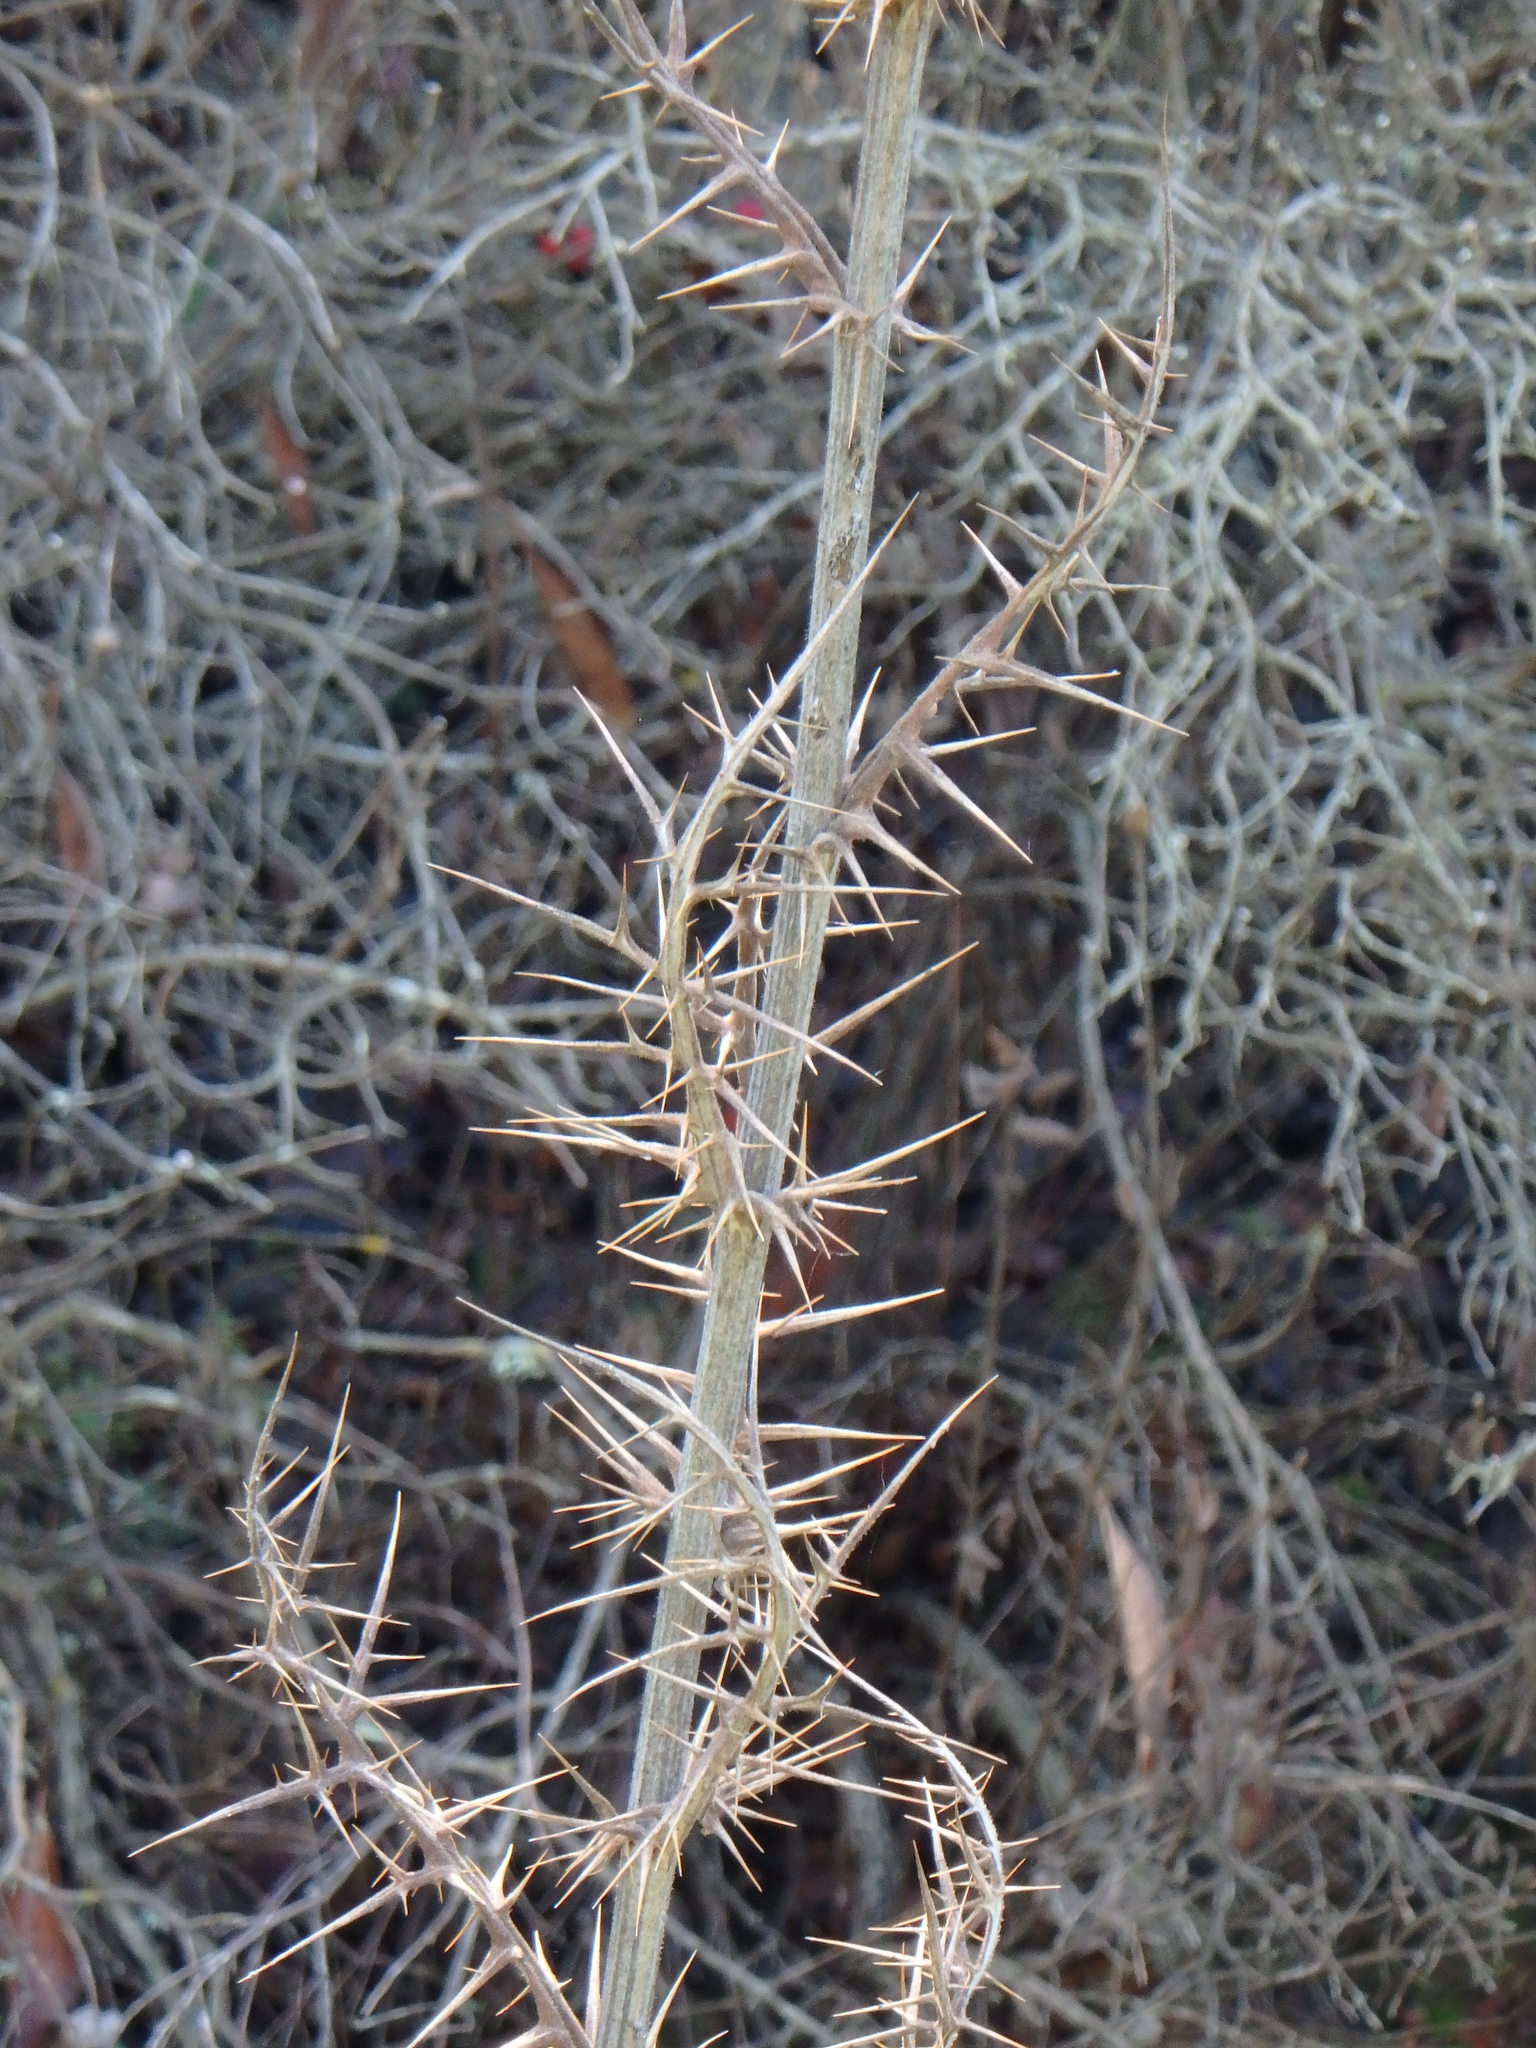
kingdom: Plantae
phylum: Tracheophyta
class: Magnoliopsida
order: Asterales
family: Asteraceae
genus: Echinops
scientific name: Echinops spinosissimus
